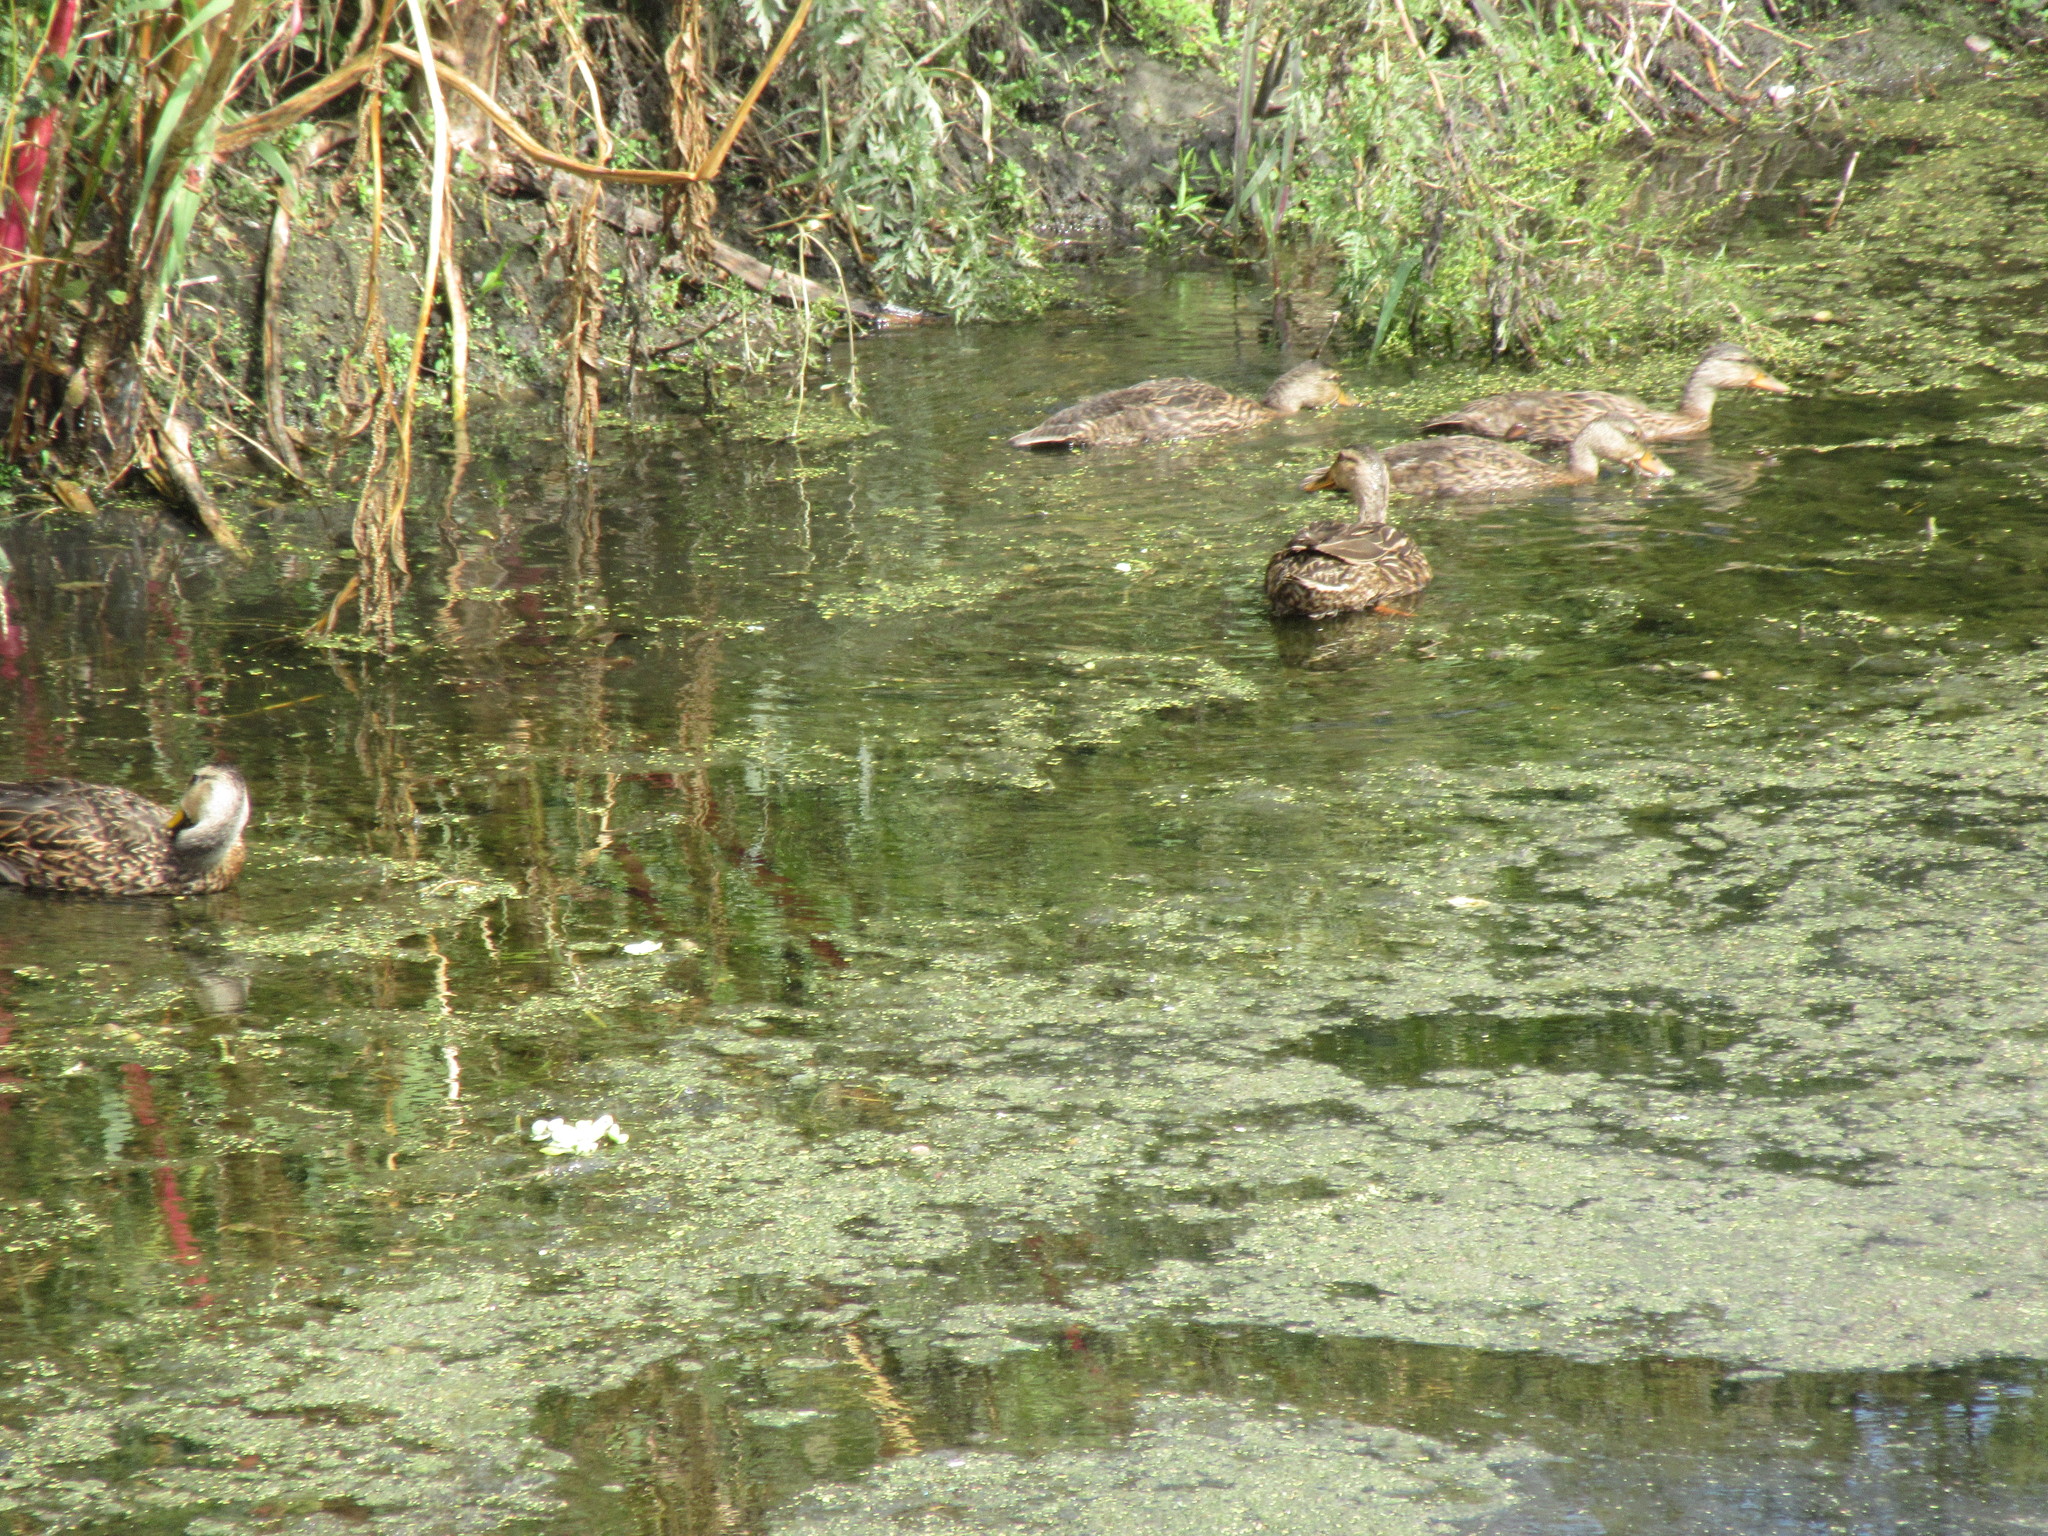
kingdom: Animalia
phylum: Chordata
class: Aves
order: Anseriformes
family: Anatidae
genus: Anas
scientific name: Anas
